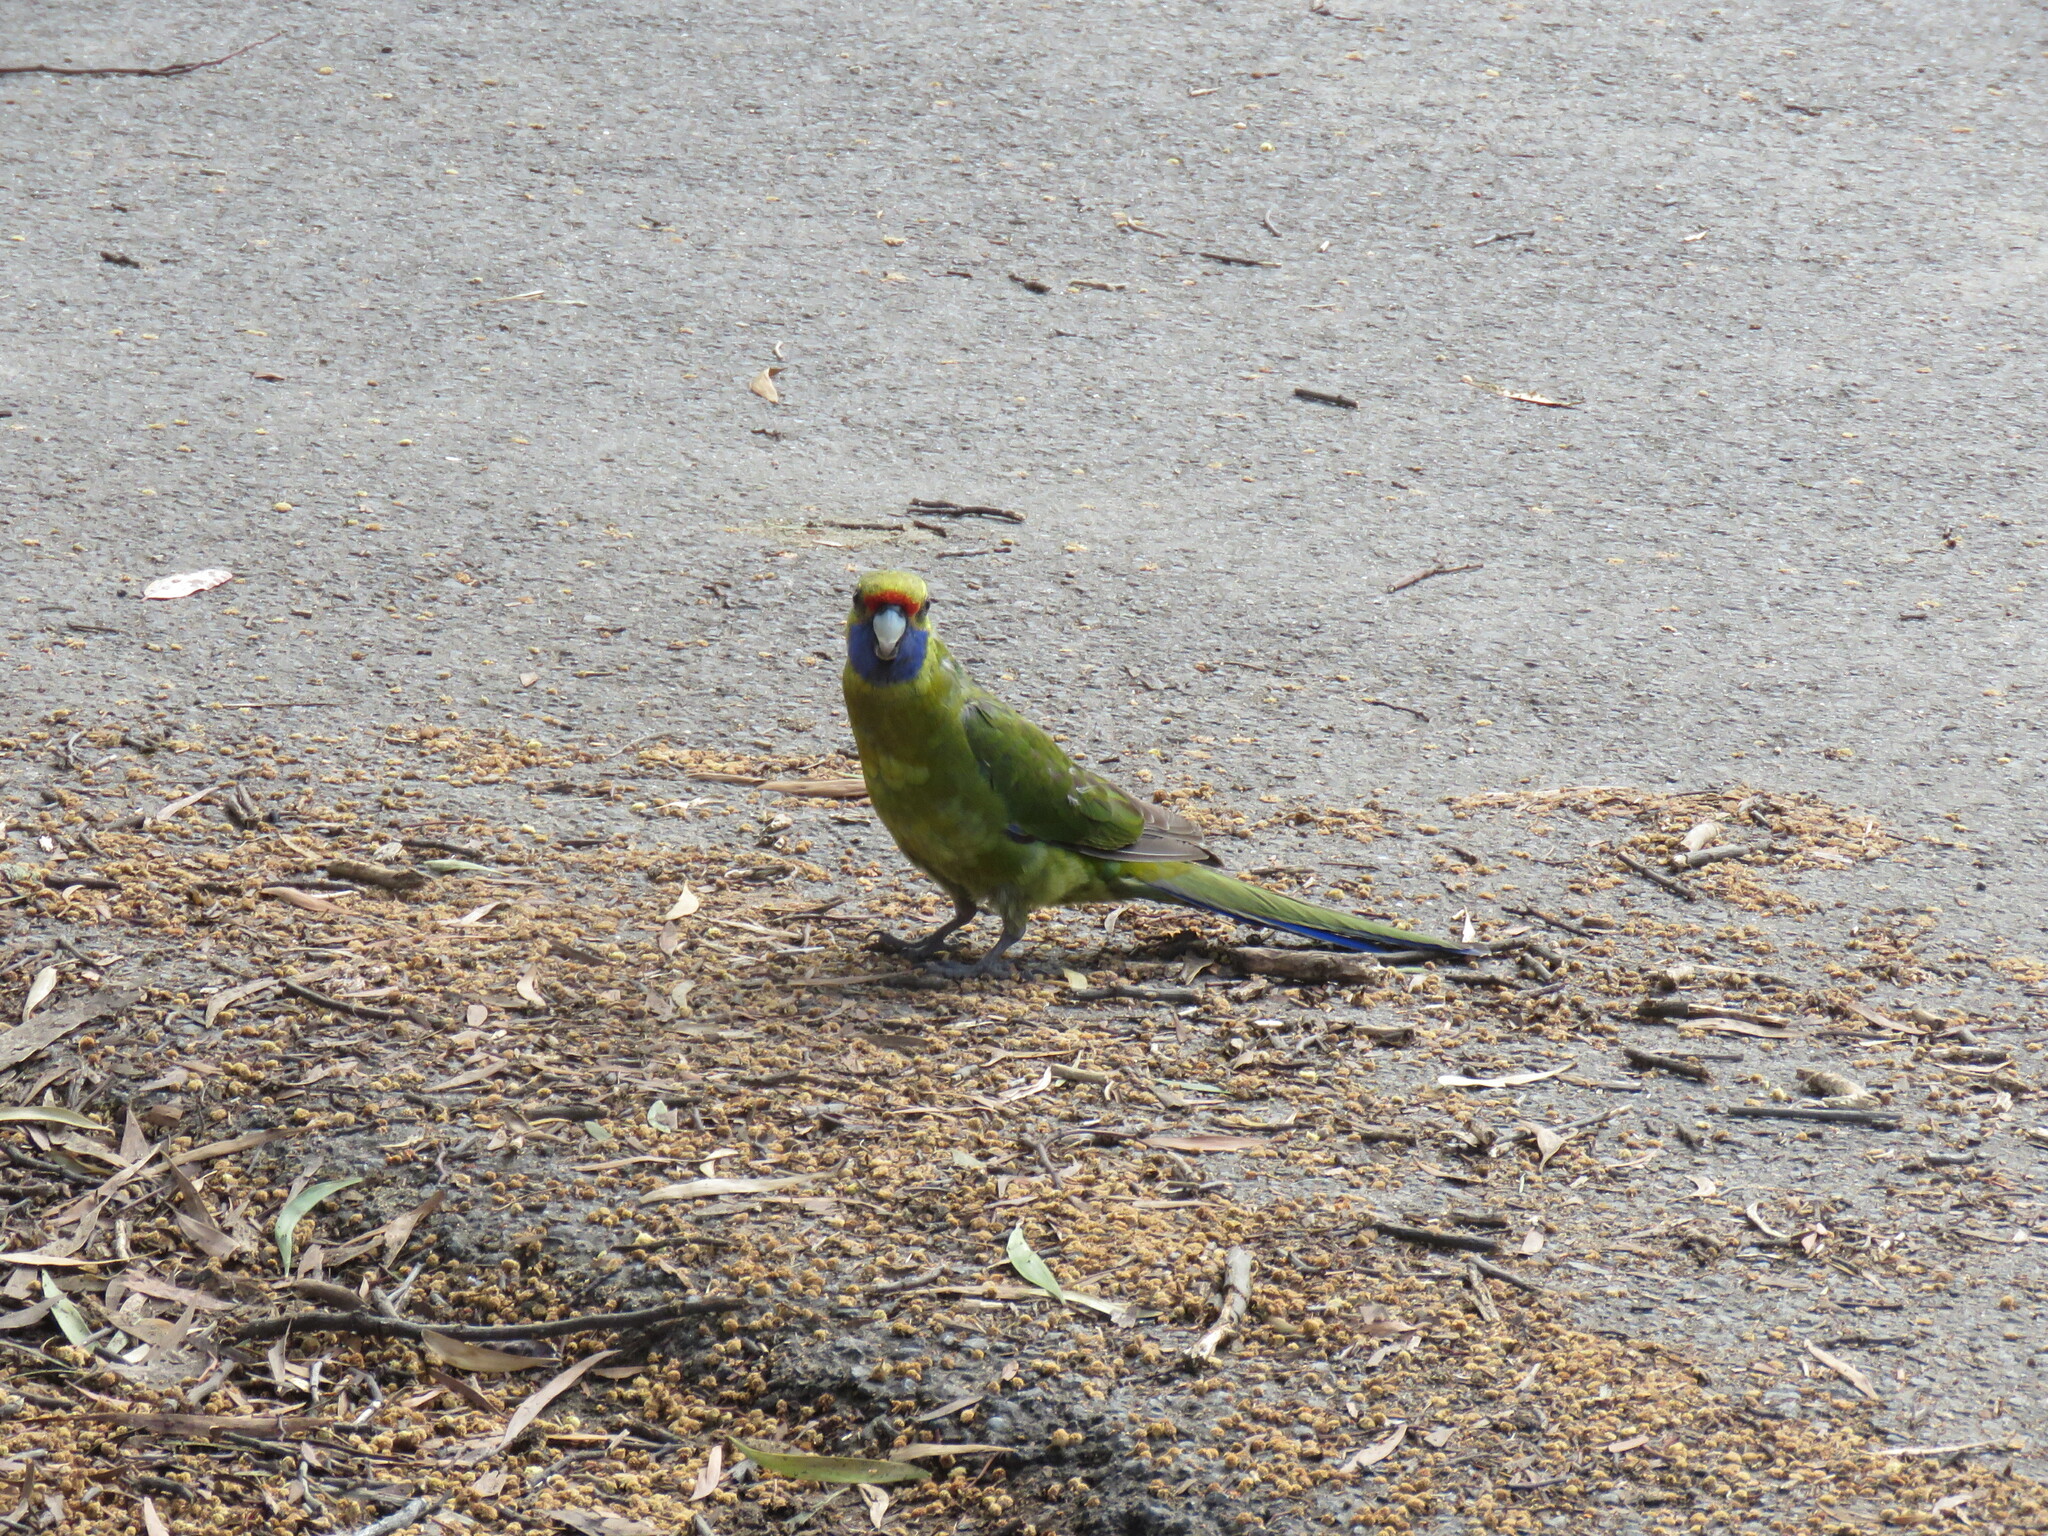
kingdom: Animalia
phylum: Chordata
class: Aves
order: Psittaciformes
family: Psittacidae
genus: Platycercus
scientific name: Platycercus caledonicus
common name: Green rosella
